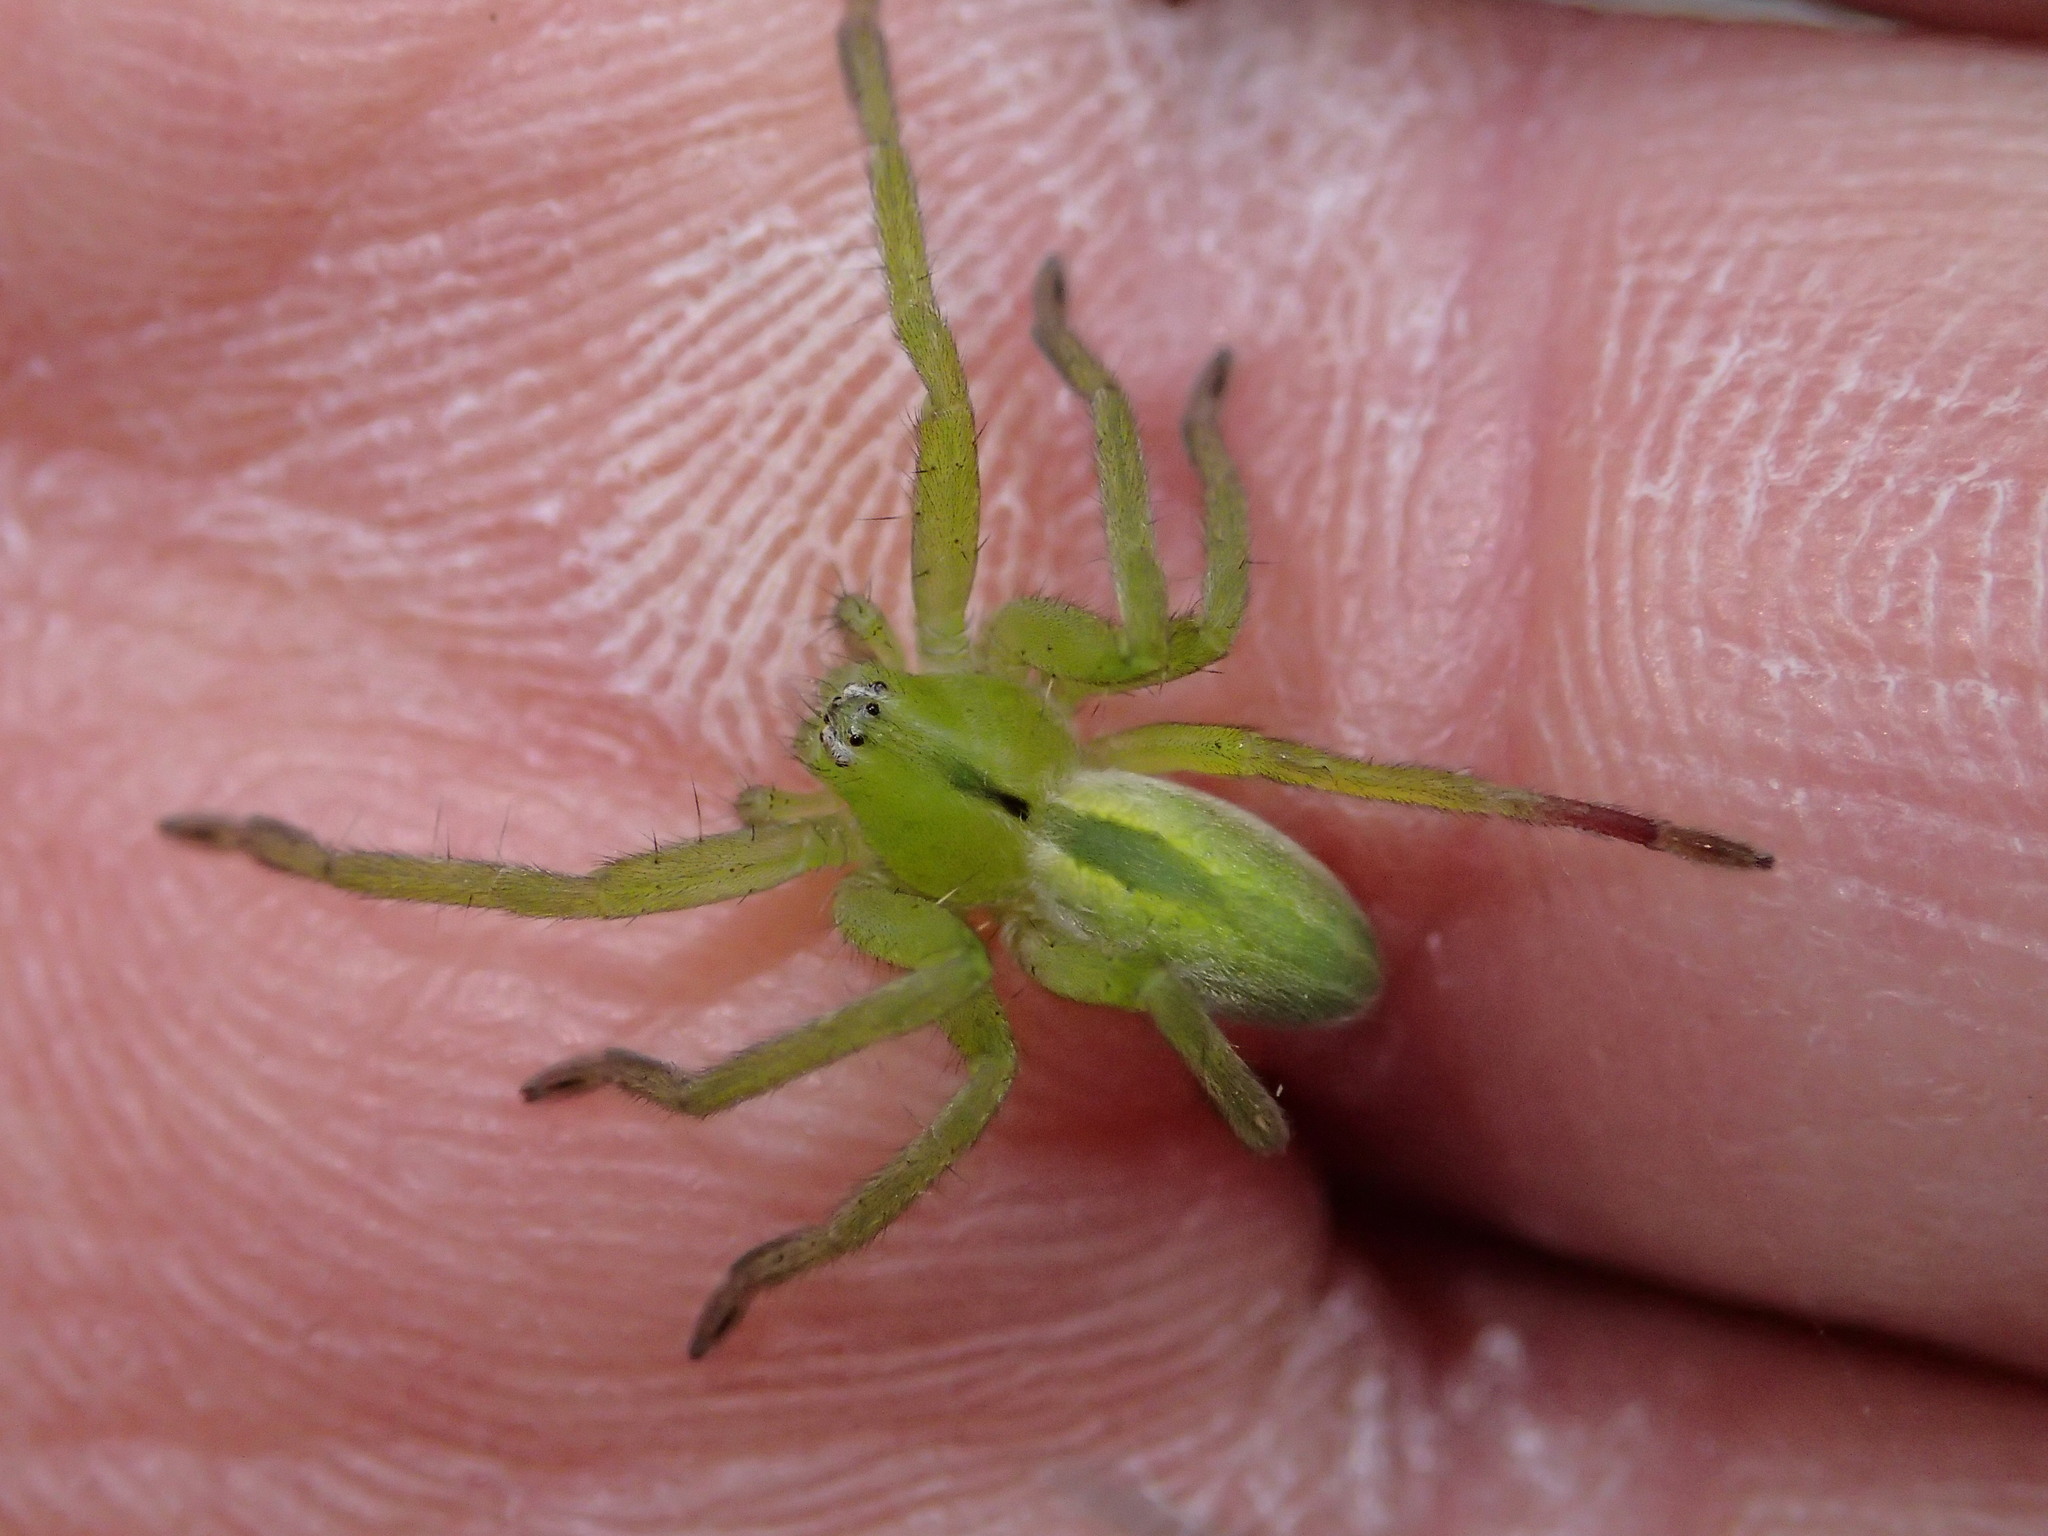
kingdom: Animalia
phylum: Arthropoda
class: Arachnida
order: Araneae
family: Sparassidae
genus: Micrommata
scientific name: Micrommata ligurina
